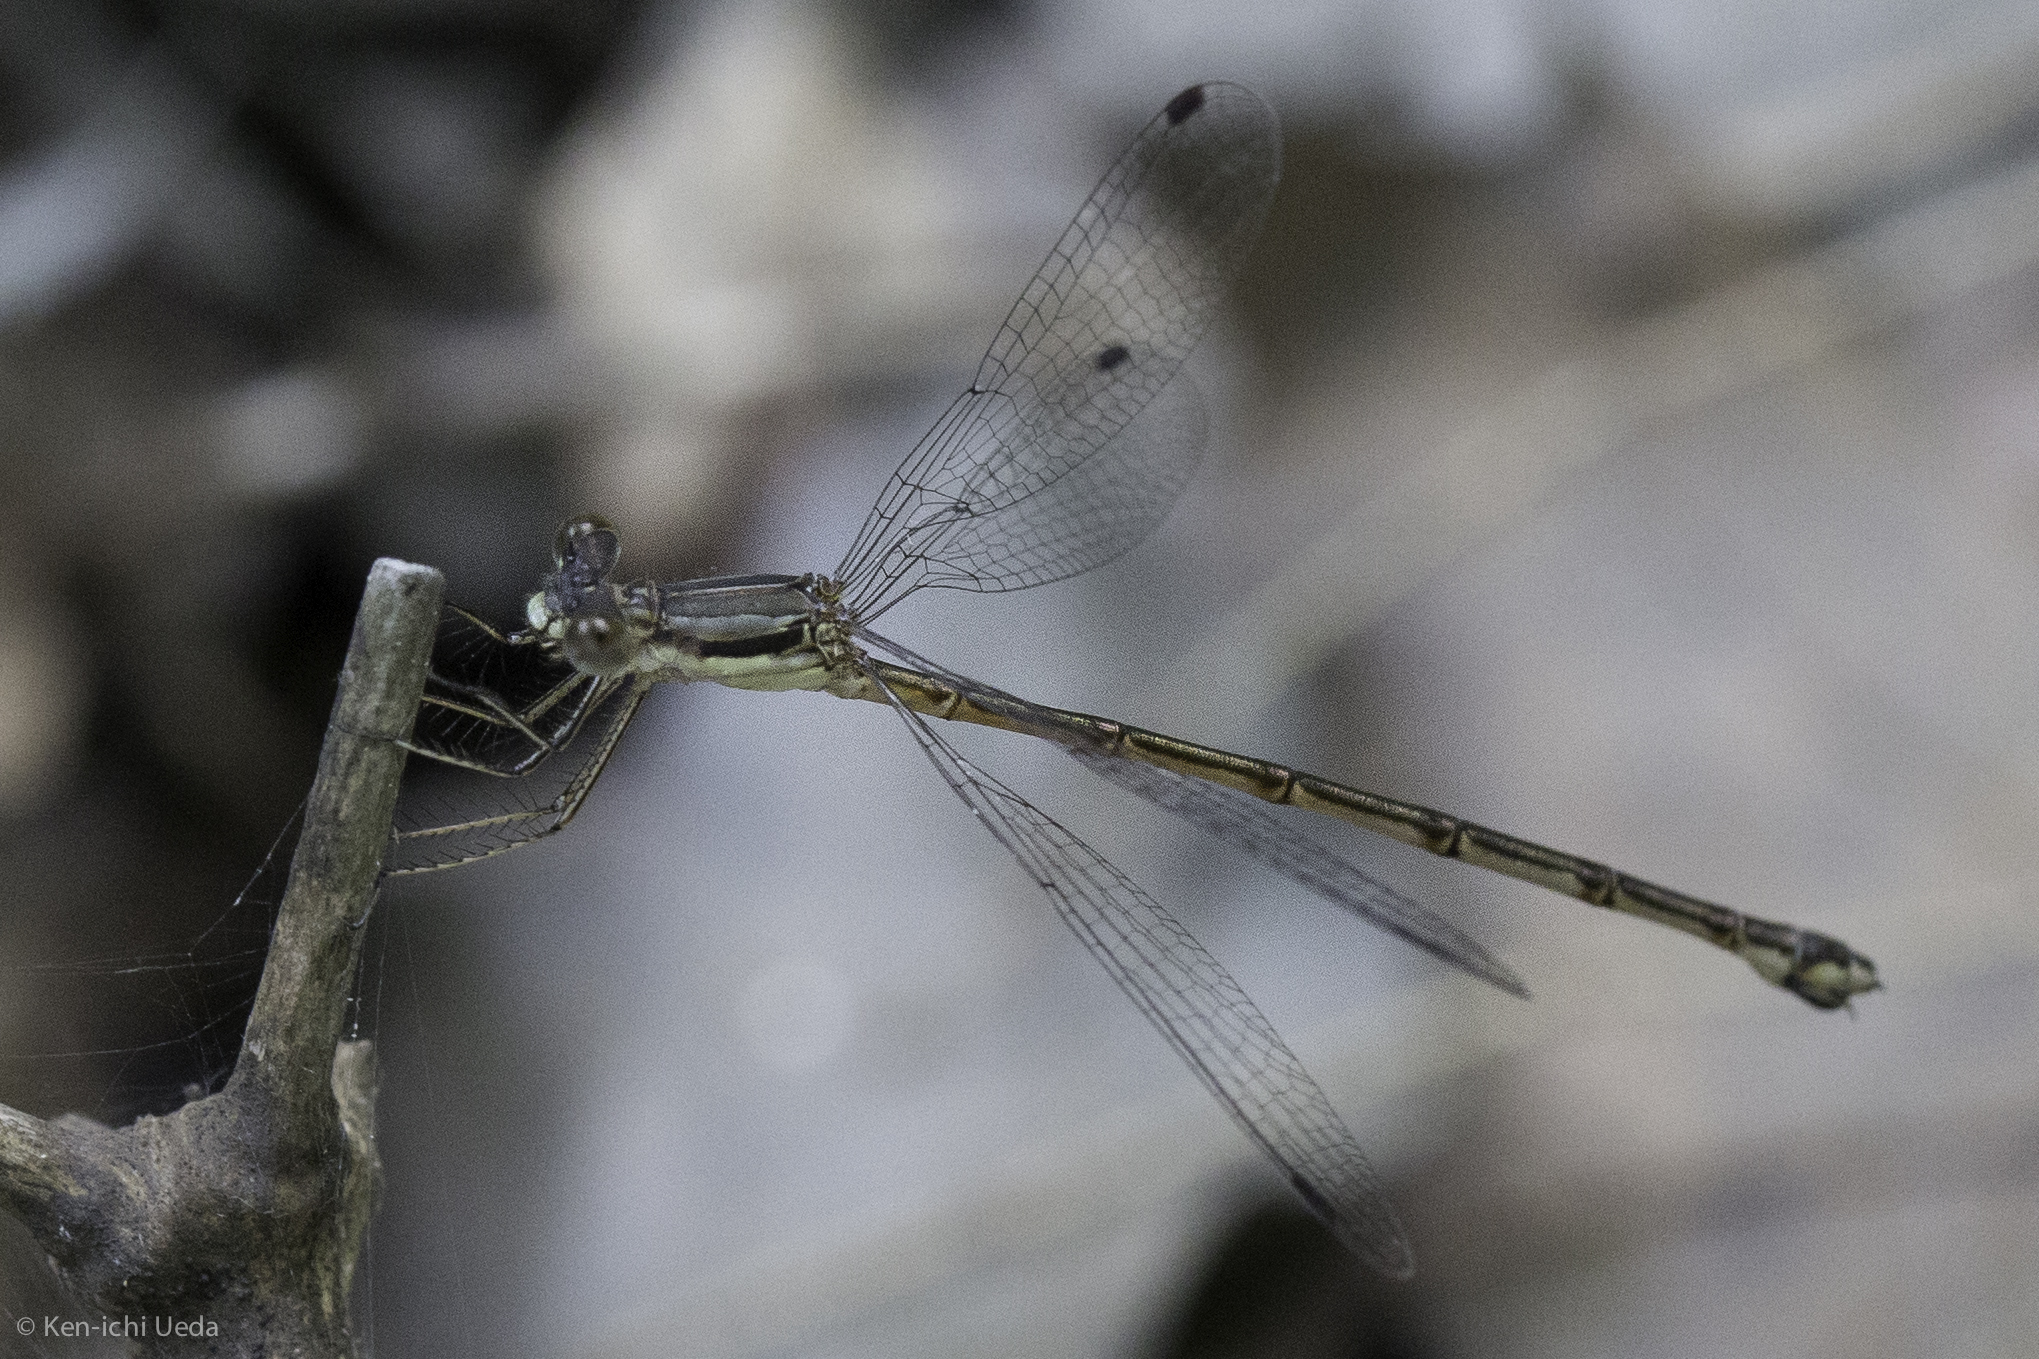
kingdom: Animalia
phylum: Arthropoda
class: Insecta
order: Odonata
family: Lestidae
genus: Lestes
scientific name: Lestes rectangularis
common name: Slender spreadwing
